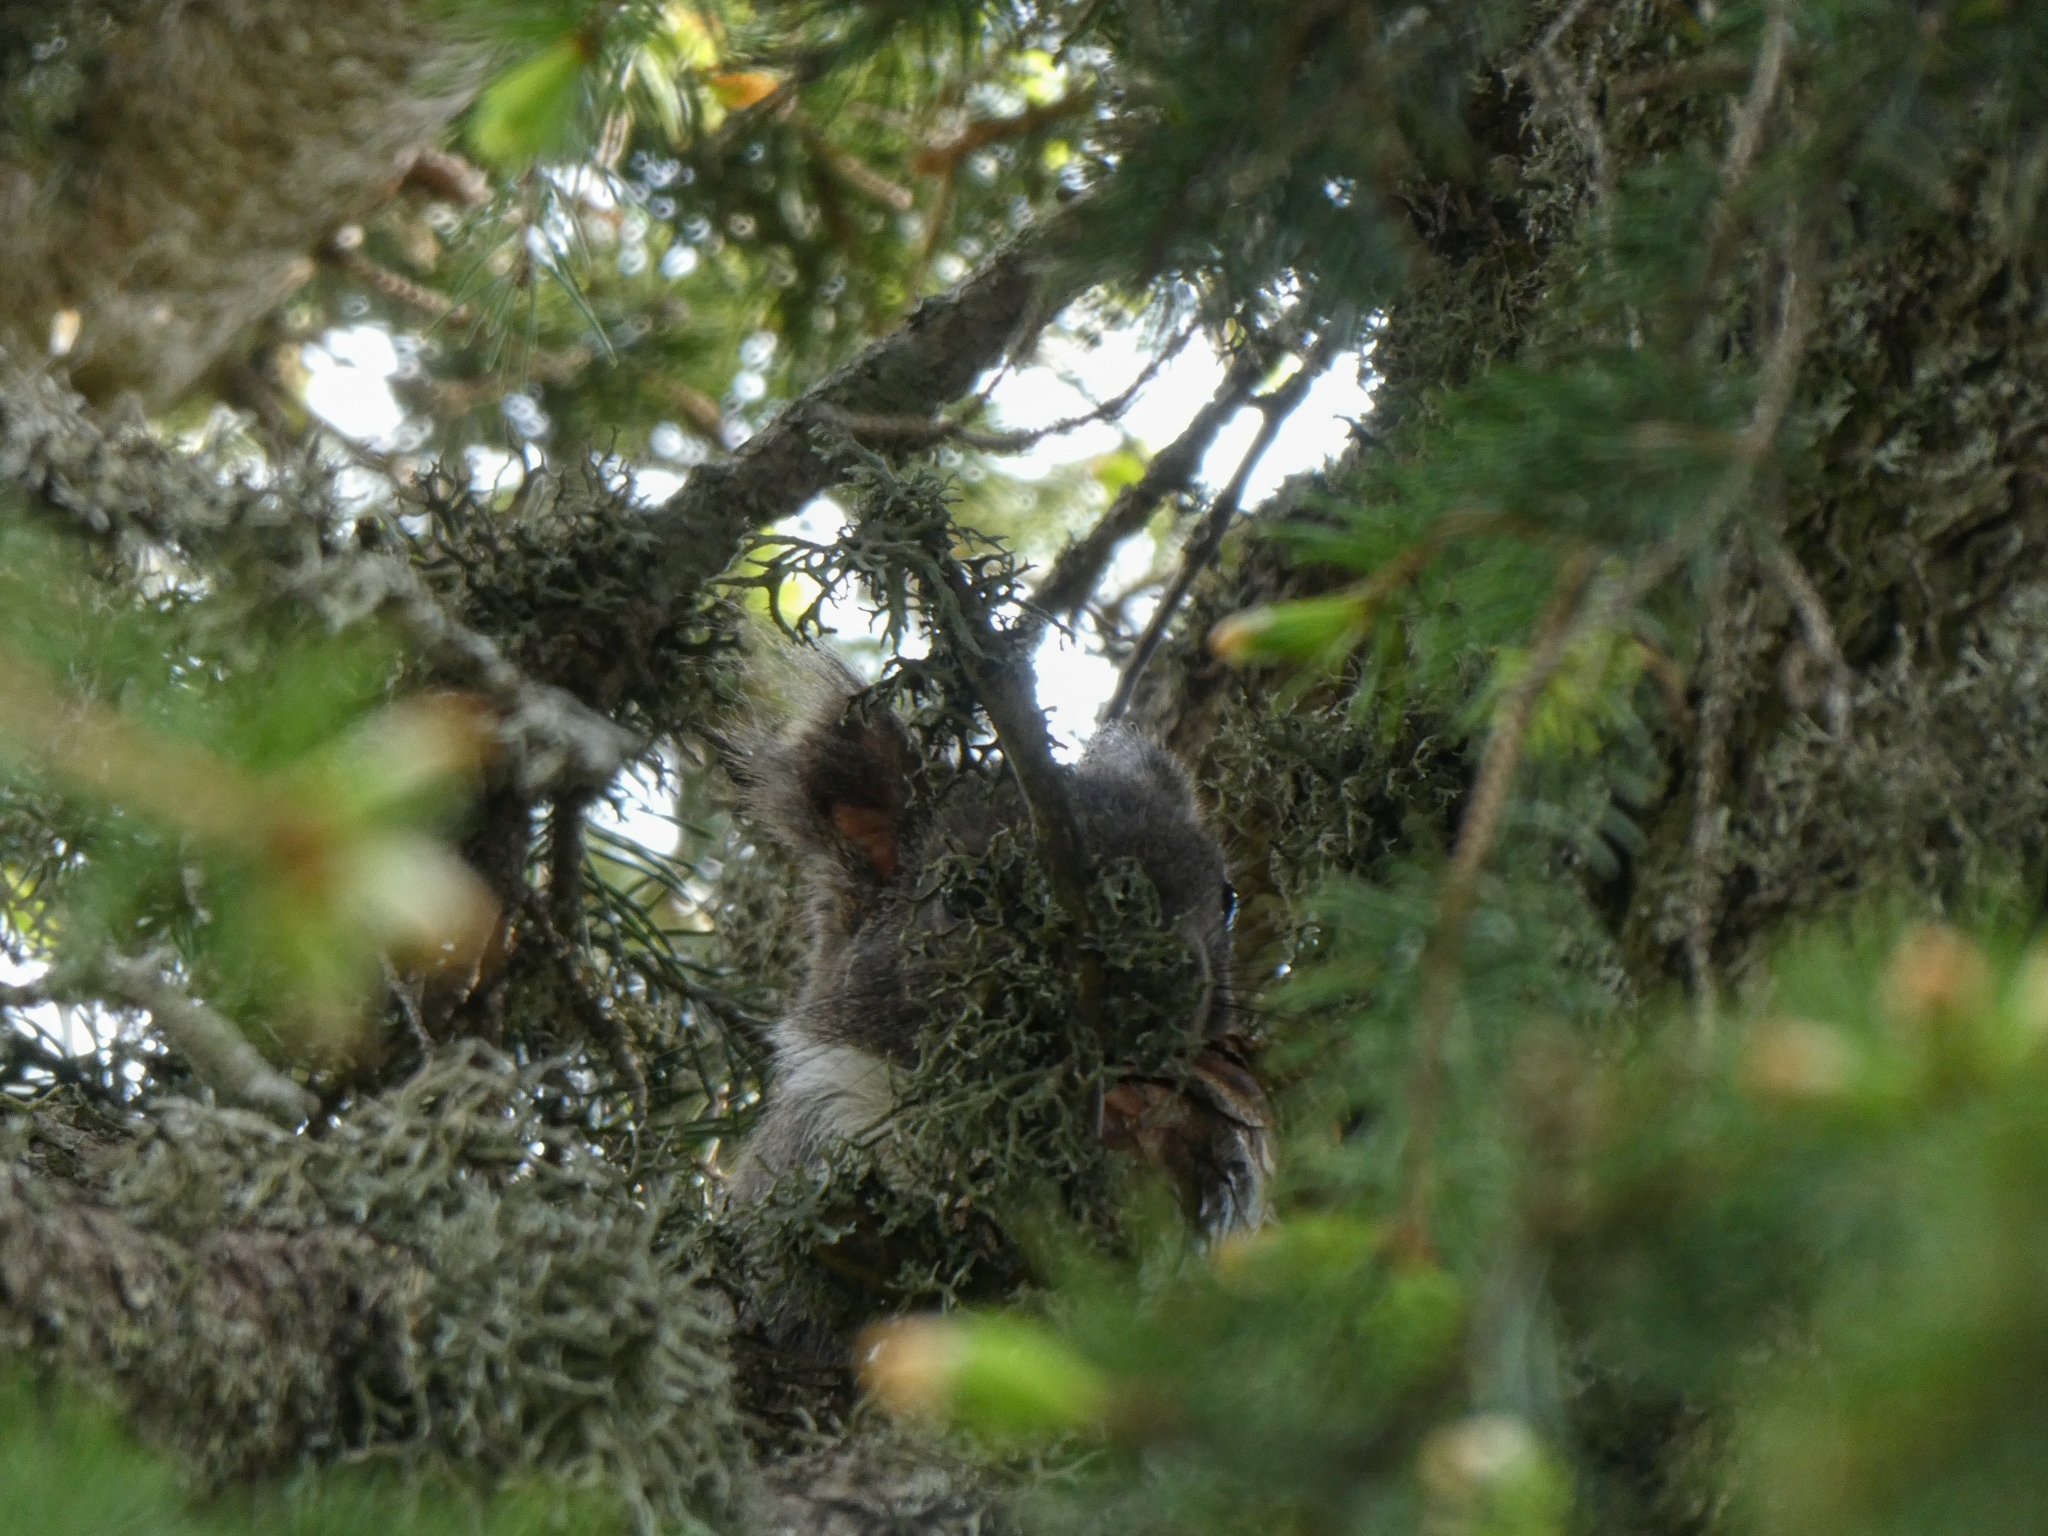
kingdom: Animalia
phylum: Chordata
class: Mammalia
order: Rodentia
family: Sciuridae
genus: Sciurus
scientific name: Sciurus vulgaris
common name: Eurasian red squirrel
